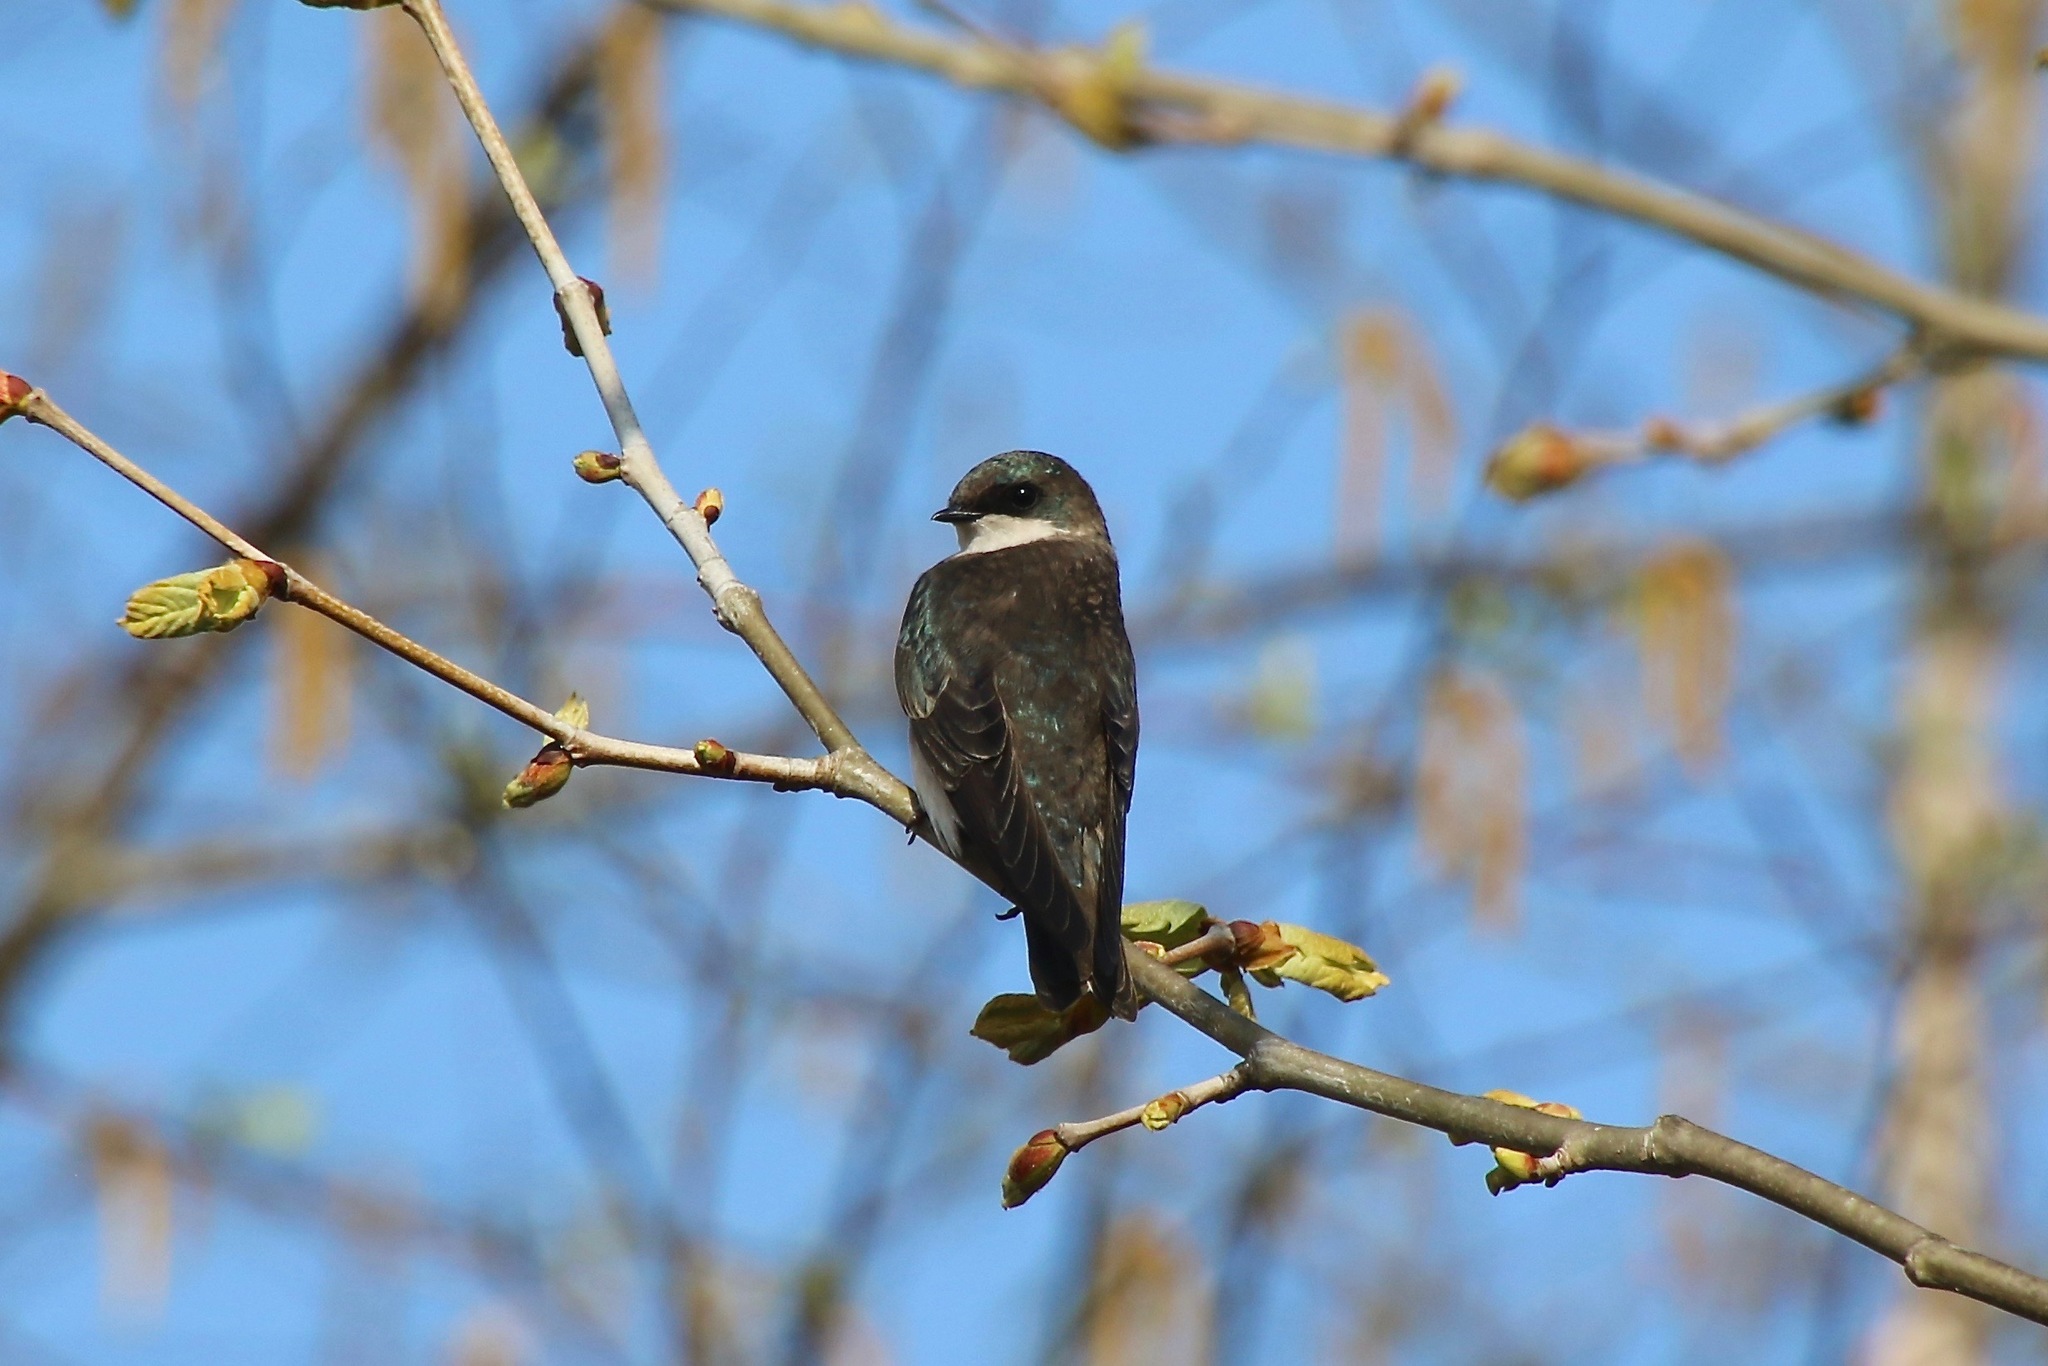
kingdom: Animalia
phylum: Chordata
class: Aves
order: Passeriformes
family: Hirundinidae
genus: Tachycineta
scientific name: Tachycineta bicolor
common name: Tree swallow
